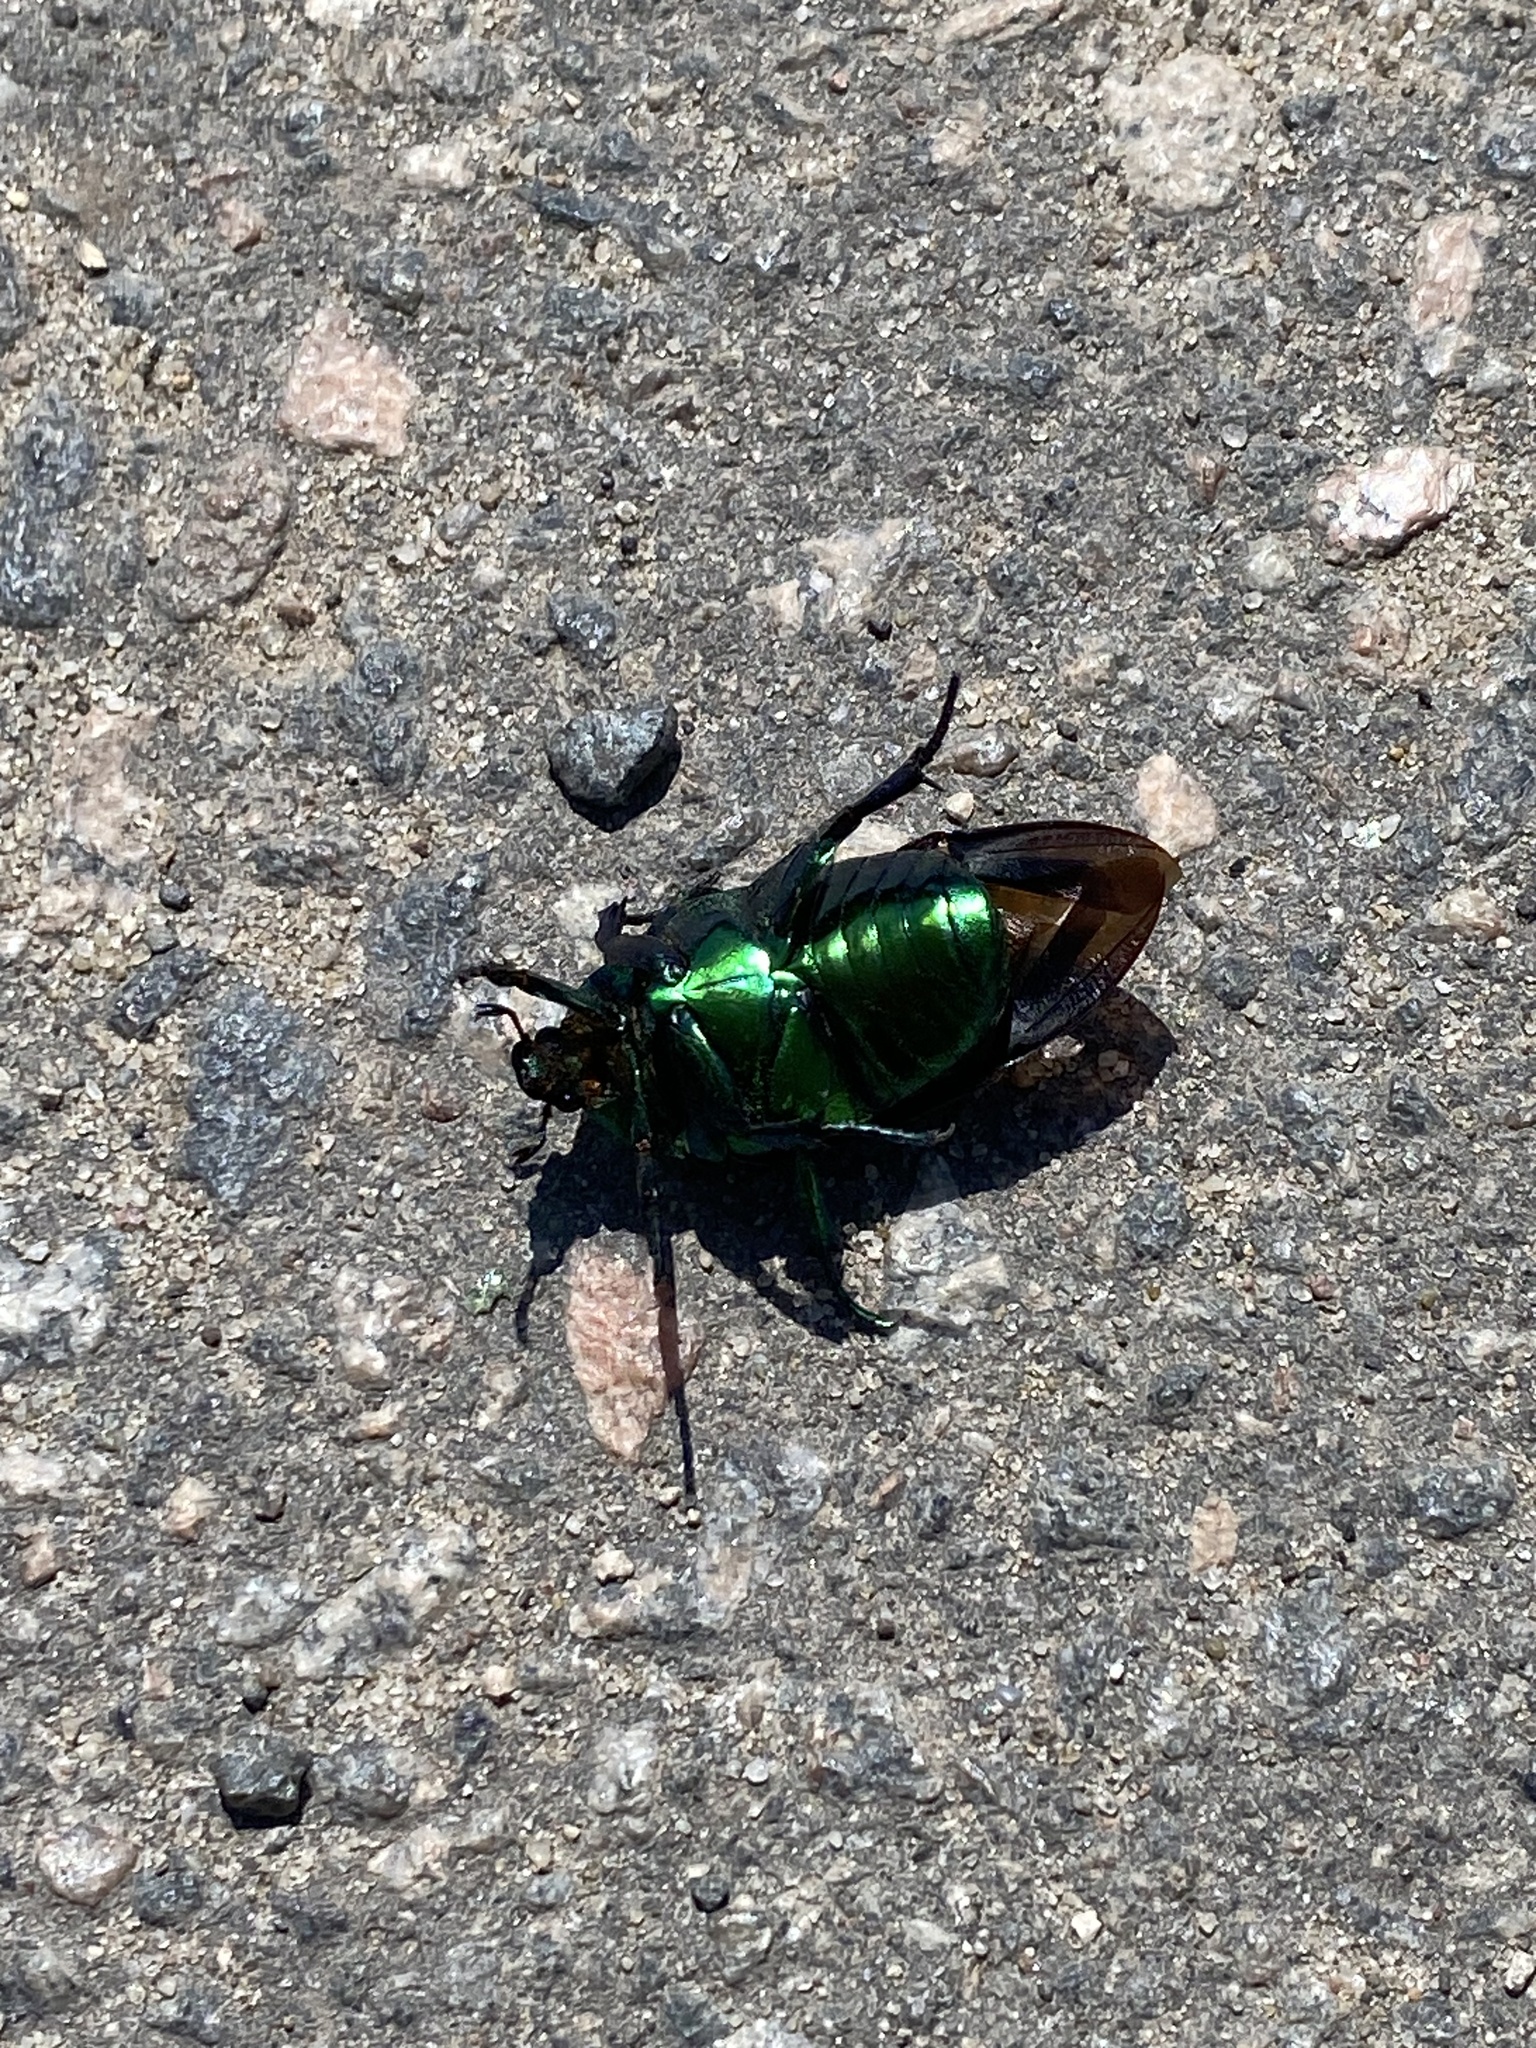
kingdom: Animalia
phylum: Arthropoda
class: Insecta
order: Coleoptera
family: Scarabaeidae
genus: Protaetia
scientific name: Protaetia speciosissima
